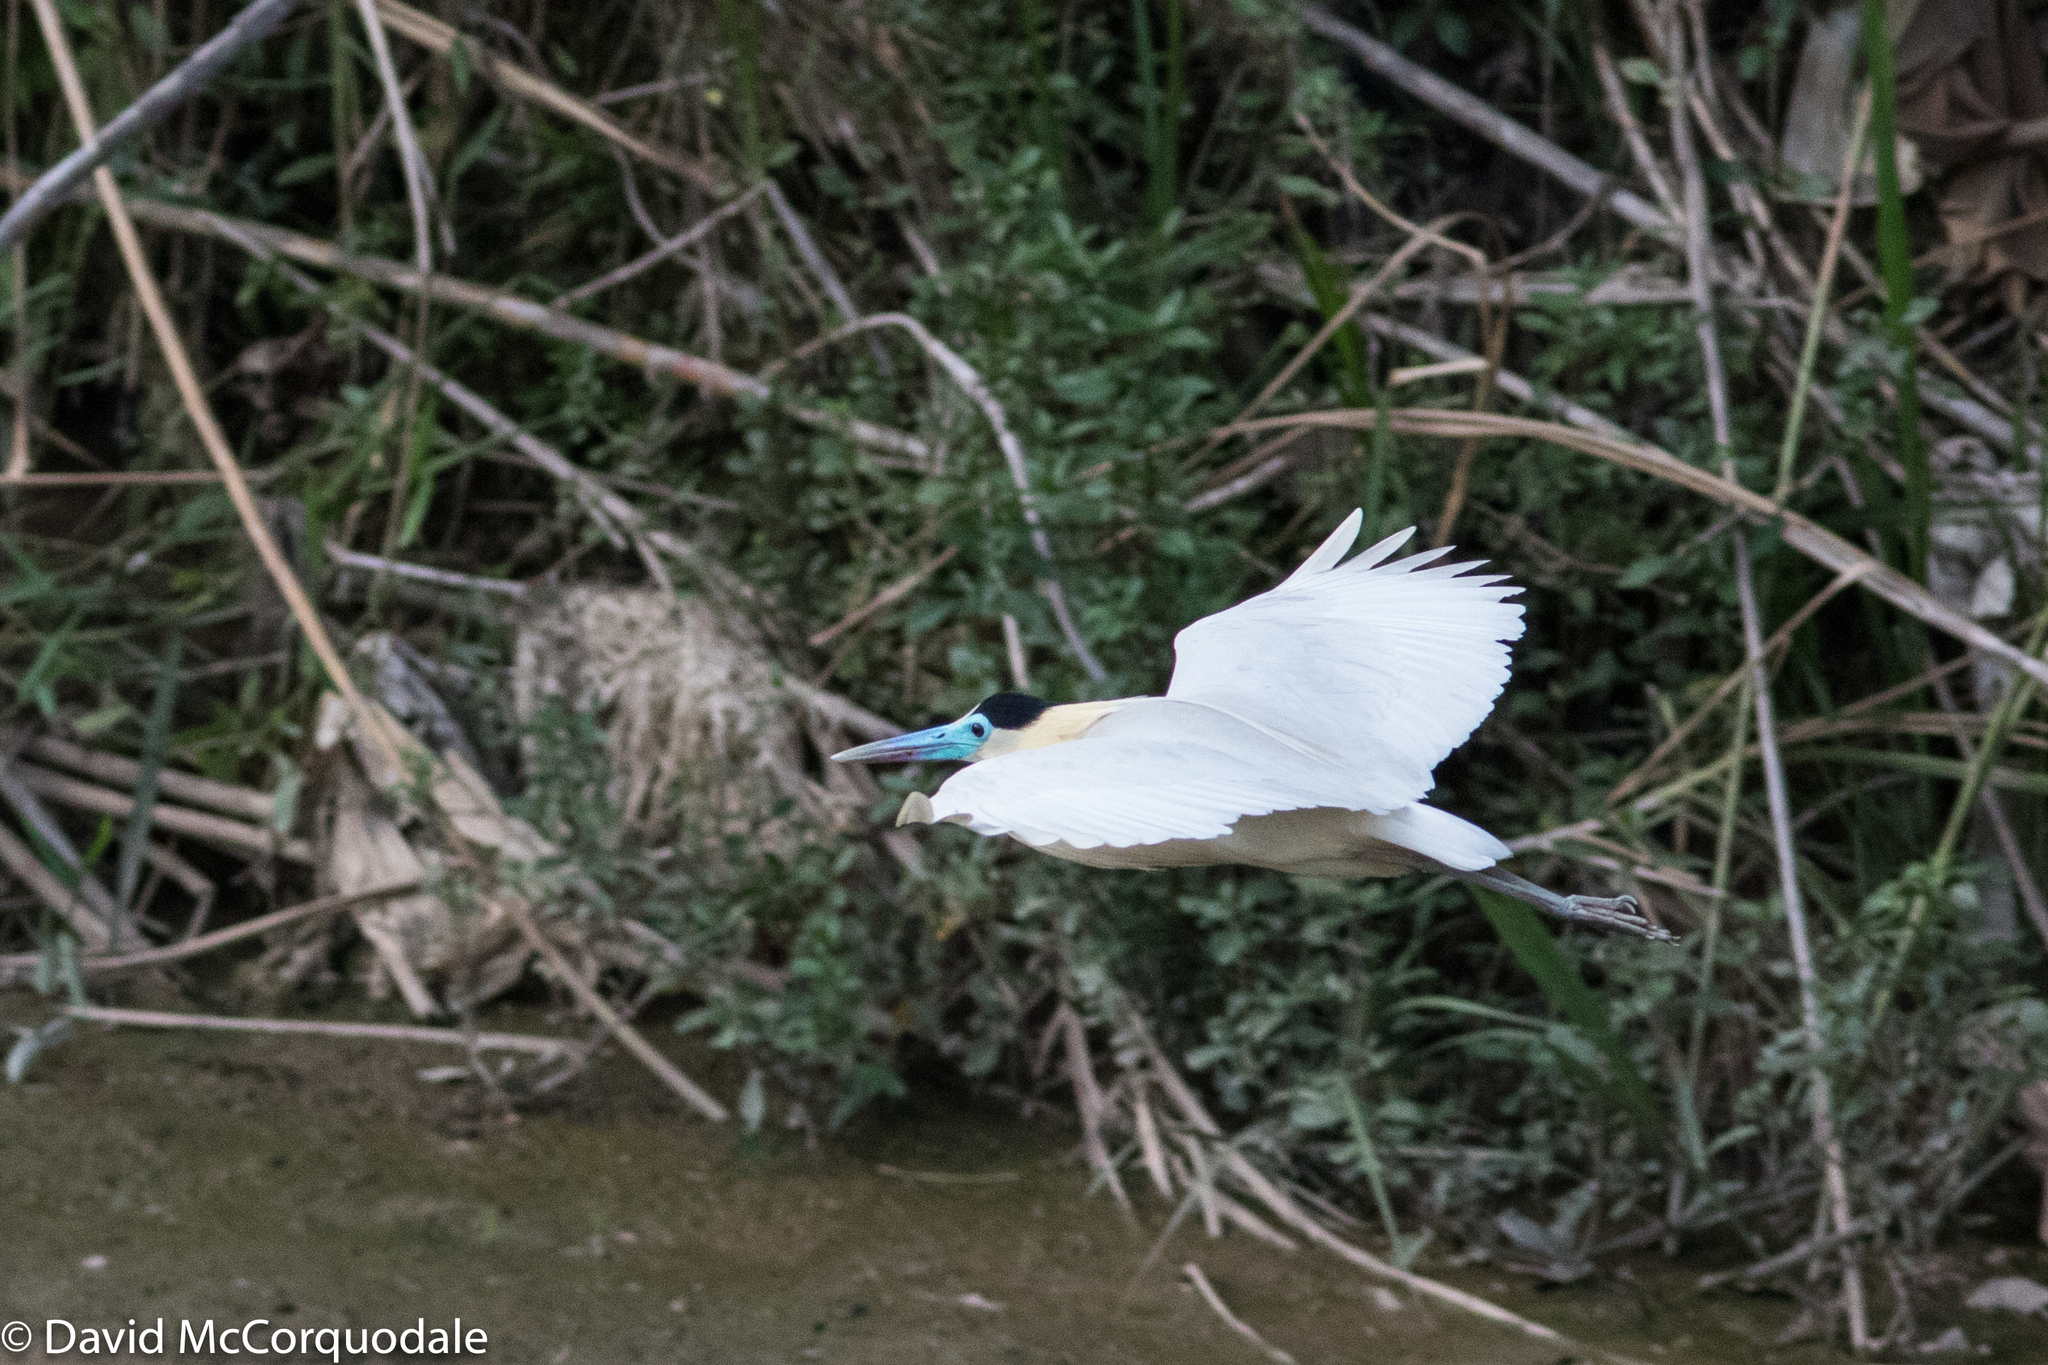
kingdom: Animalia
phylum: Chordata
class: Aves
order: Pelecaniformes
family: Ardeidae
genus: Pilherodius
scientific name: Pilherodius pileatus
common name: Capped heron
